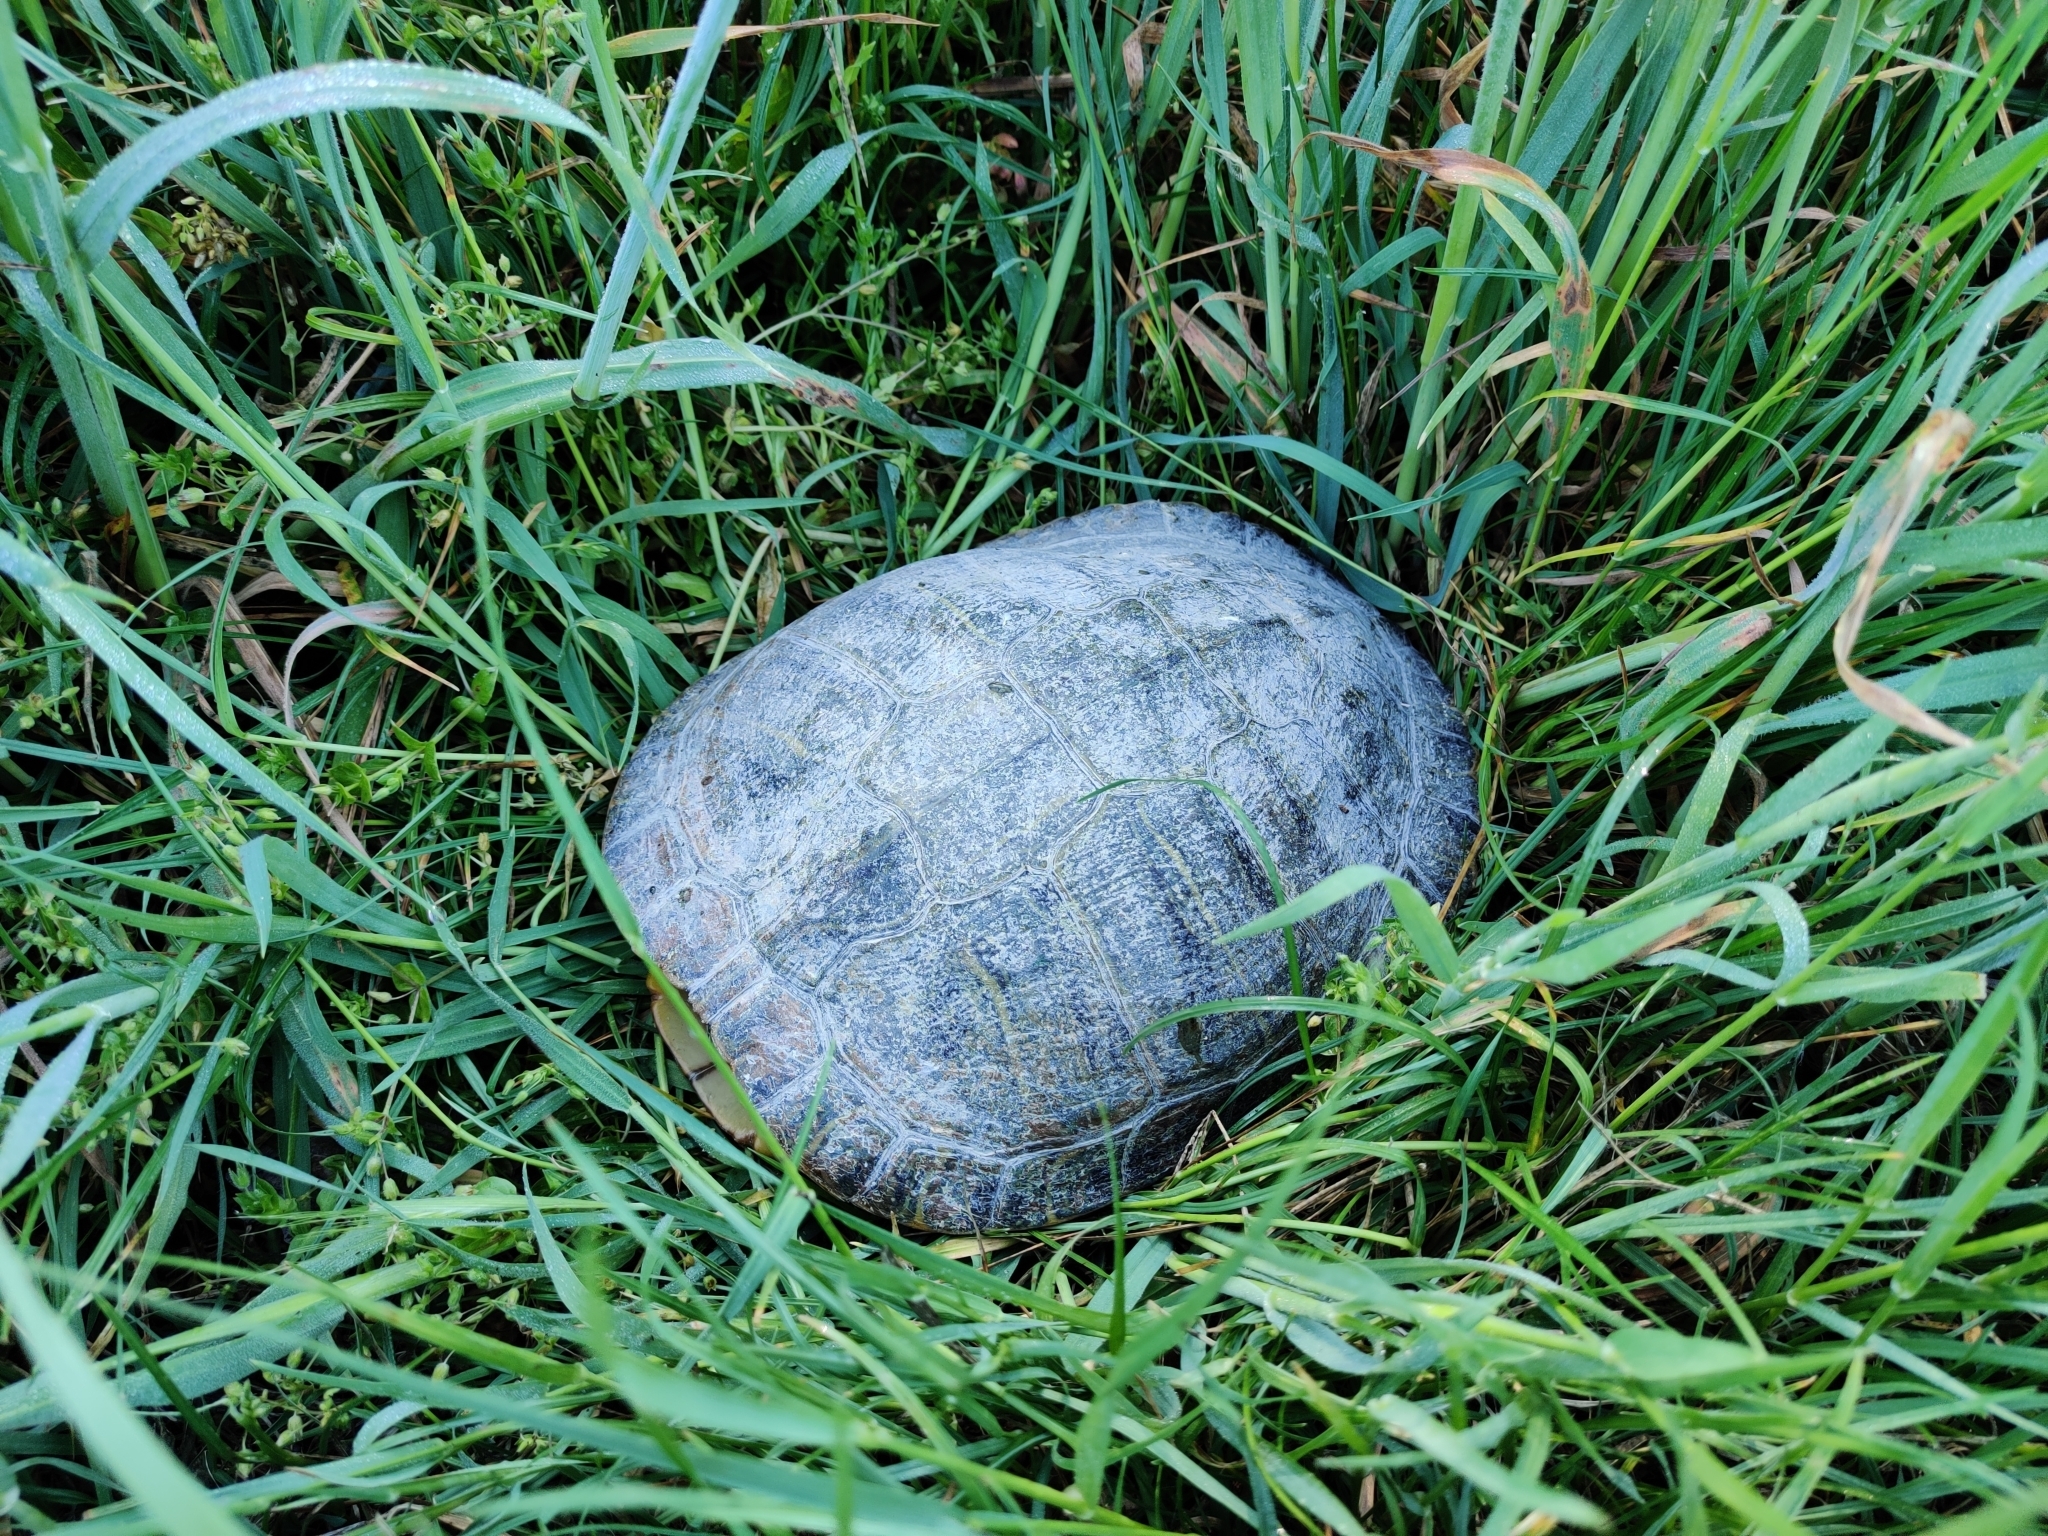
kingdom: Animalia
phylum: Chordata
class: Testudines
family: Emydidae
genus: Trachemys
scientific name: Trachemys scripta
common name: Slider
